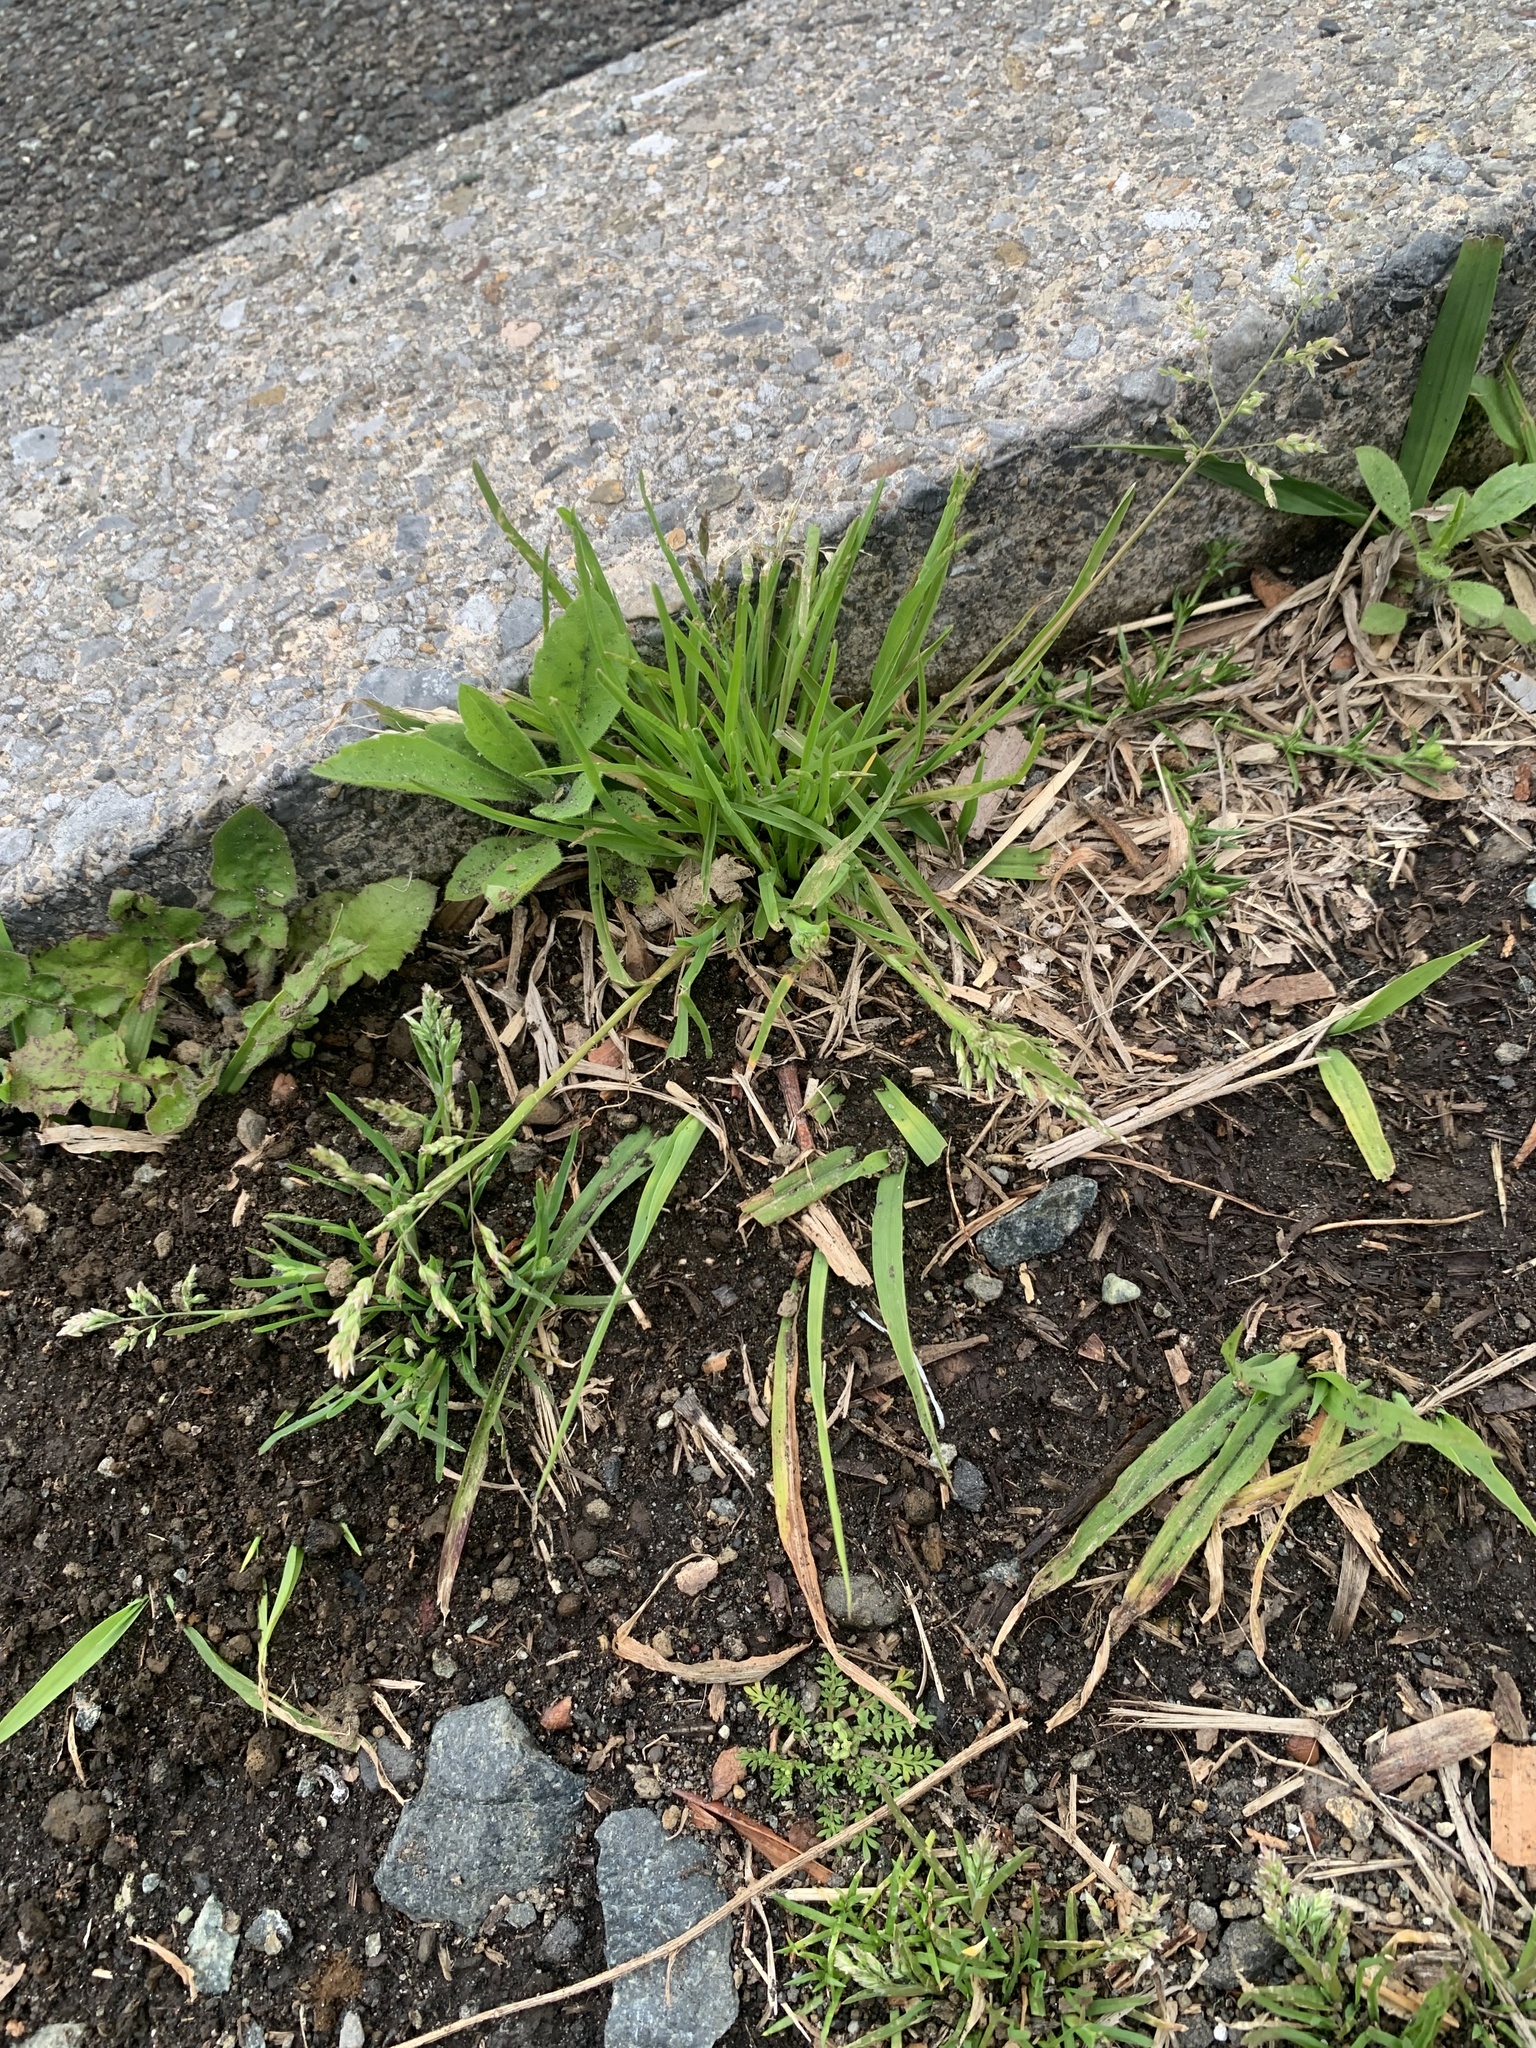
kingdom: Plantae
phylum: Tracheophyta
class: Liliopsida
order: Poales
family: Poaceae
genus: Poa
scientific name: Poa annua
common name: Annual bluegrass
